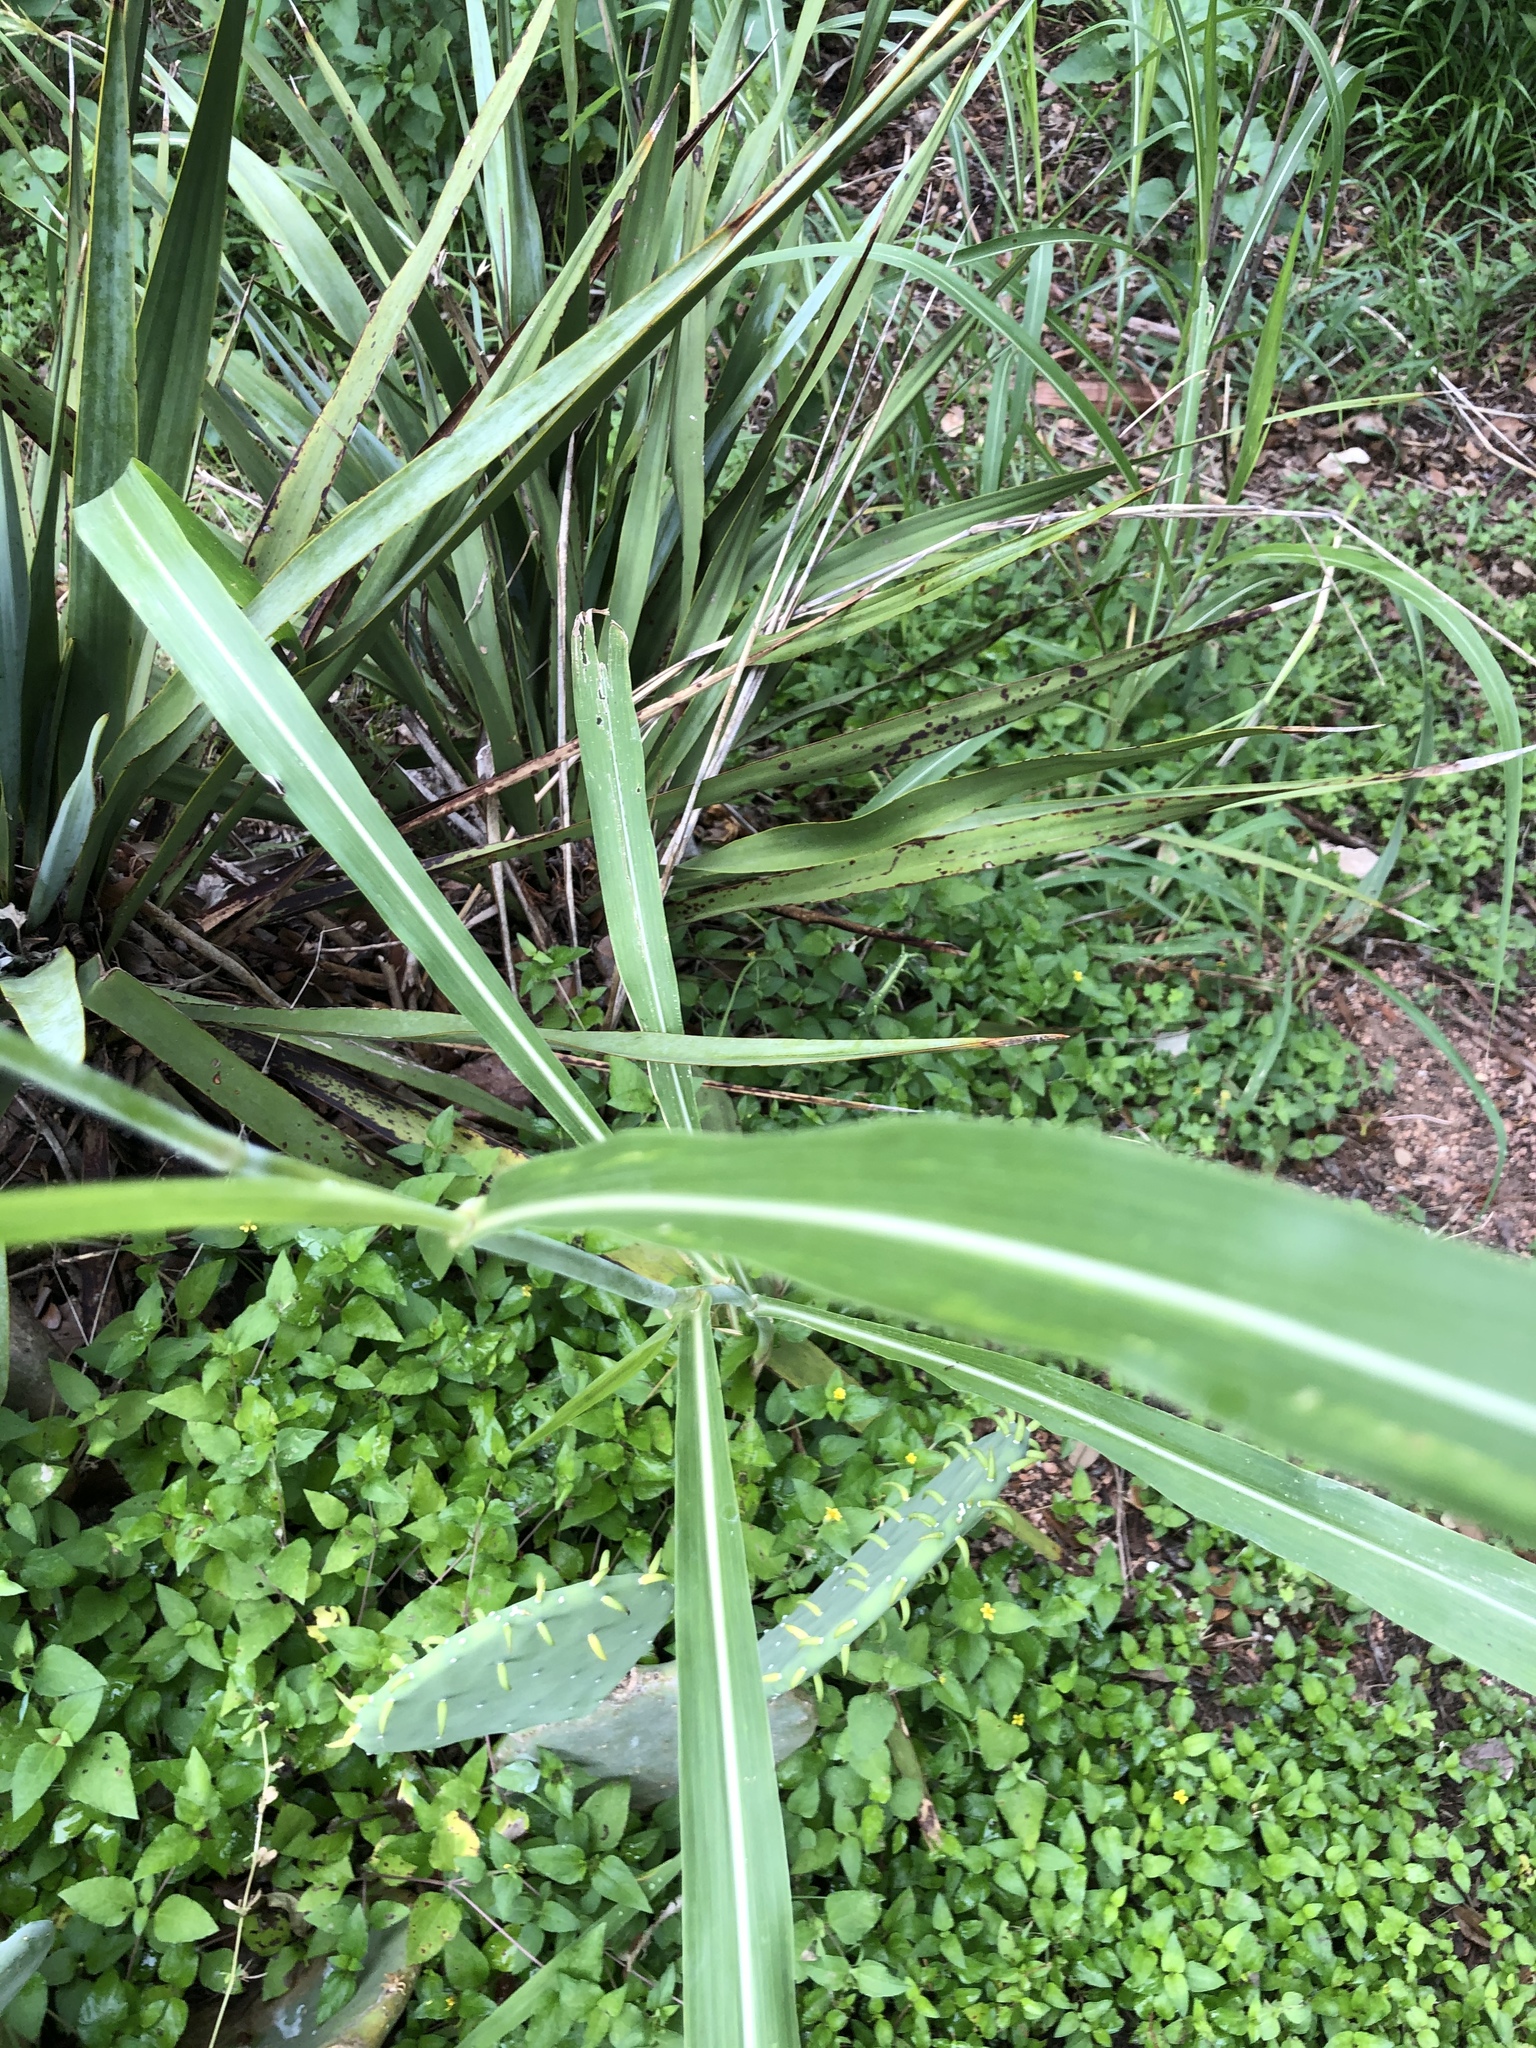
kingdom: Plantae
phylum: Tracheophyta
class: Liliopsida
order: Poales
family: Poaceae
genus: Sorghum
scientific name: Sorghum halepense
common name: Johnson-grass
